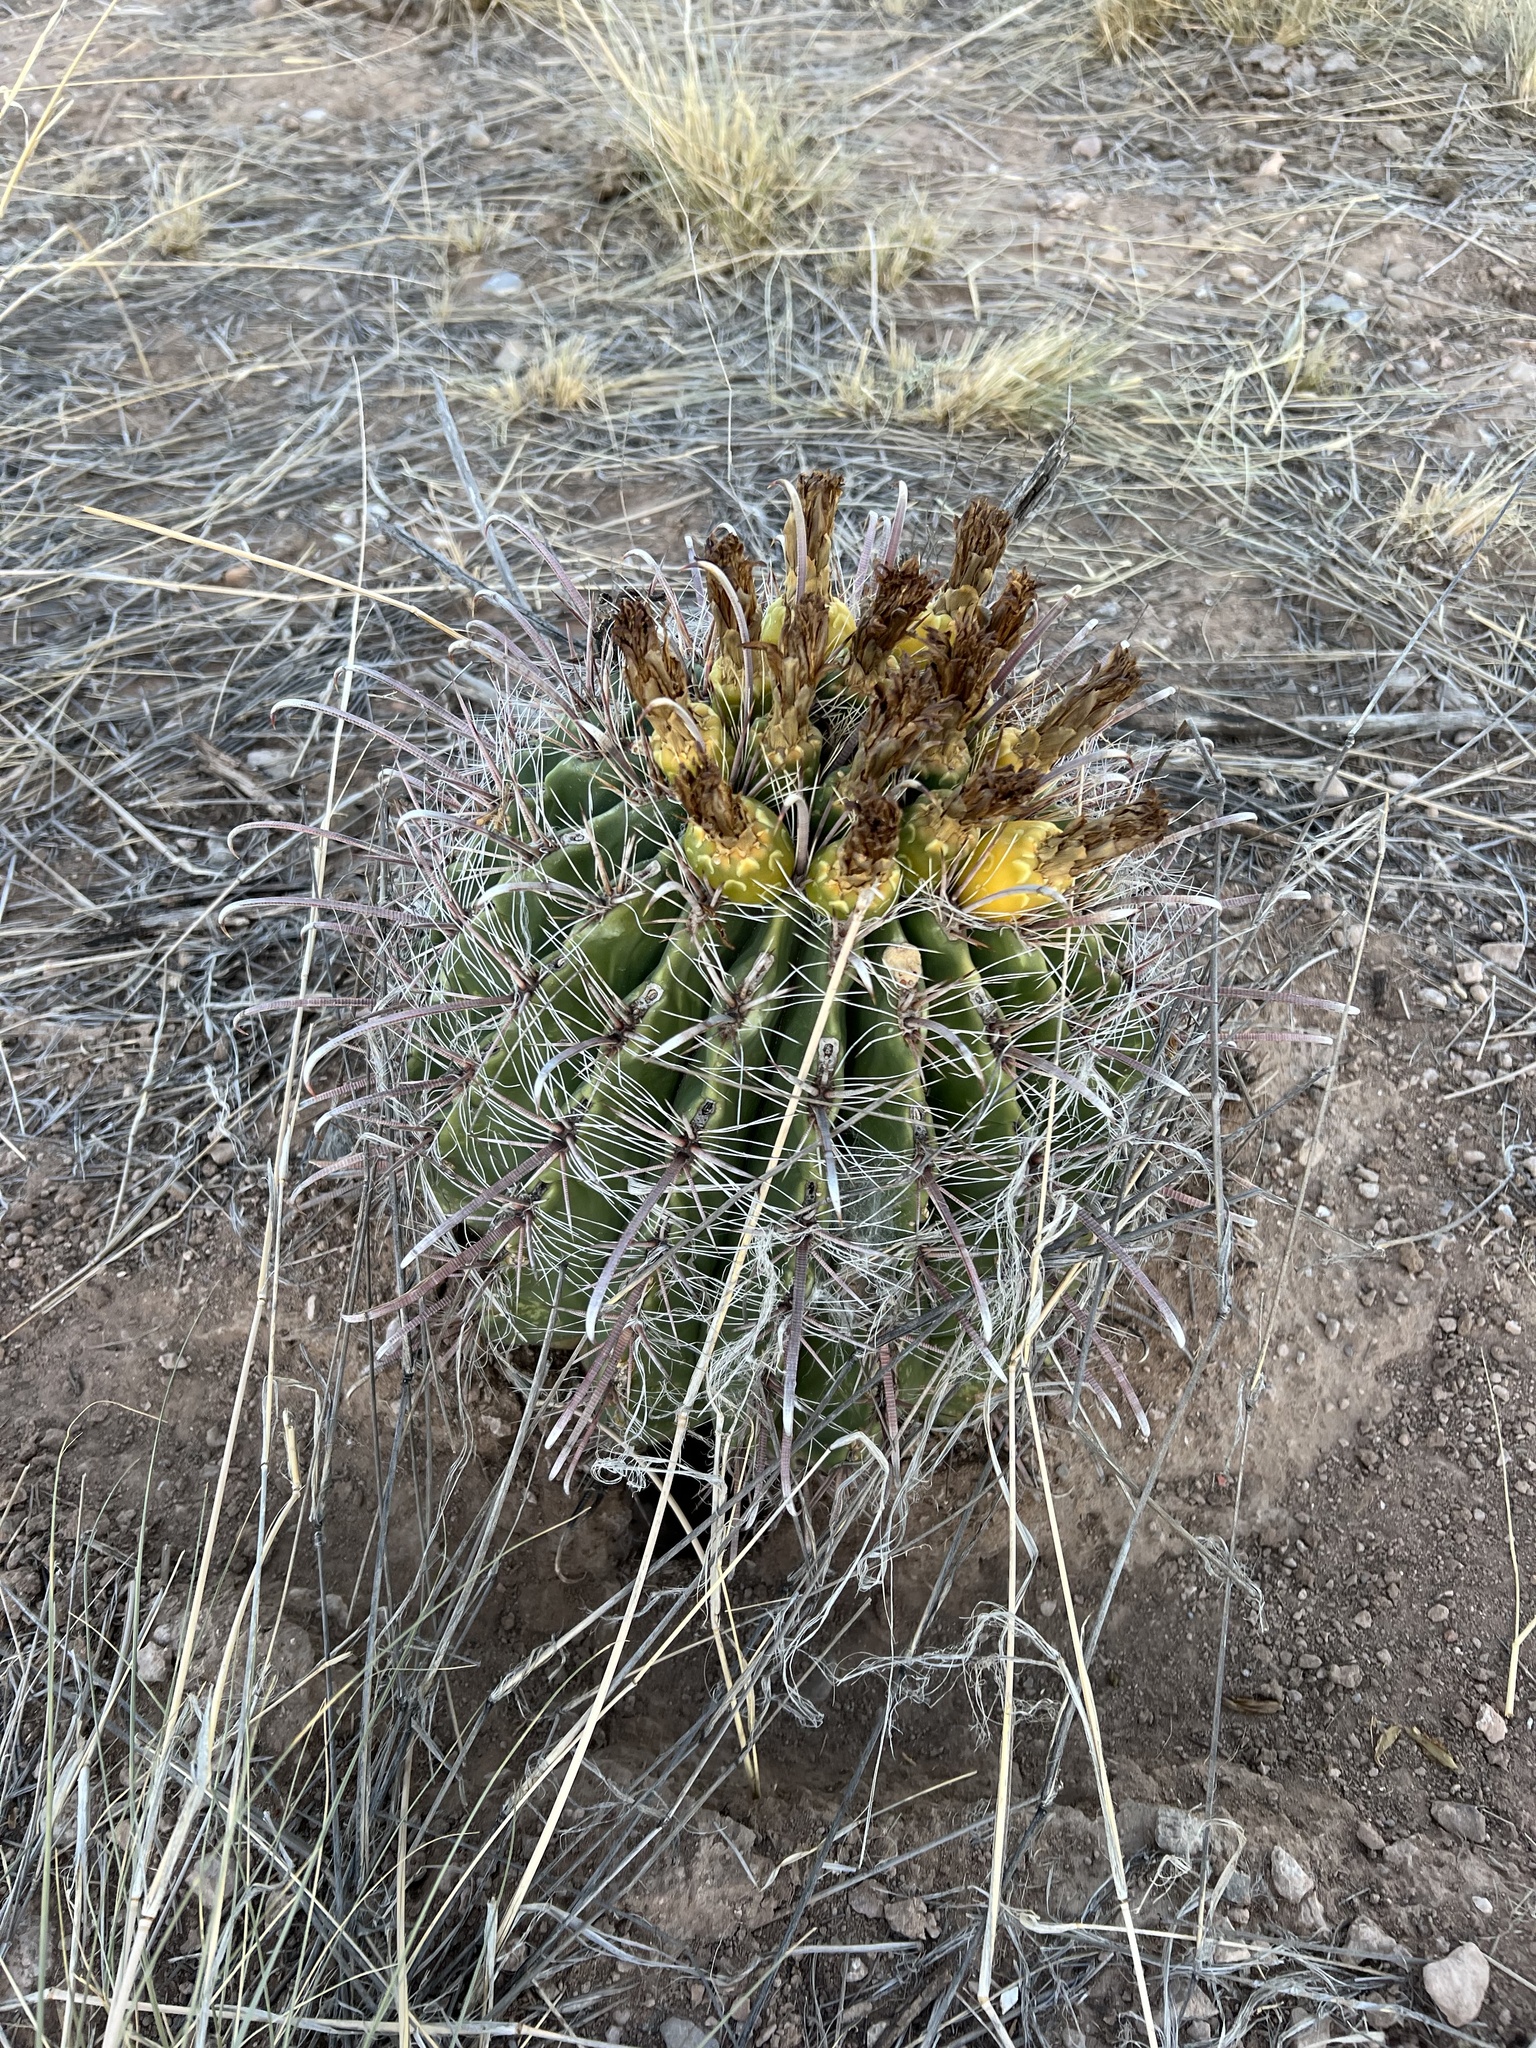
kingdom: Plantae
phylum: Tracheophyta
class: Magnoliopsida
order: Caryophyllales
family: Cactaceae
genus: Ferocactus
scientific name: Ferocactus wislizeni
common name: Candy barrel cactus
